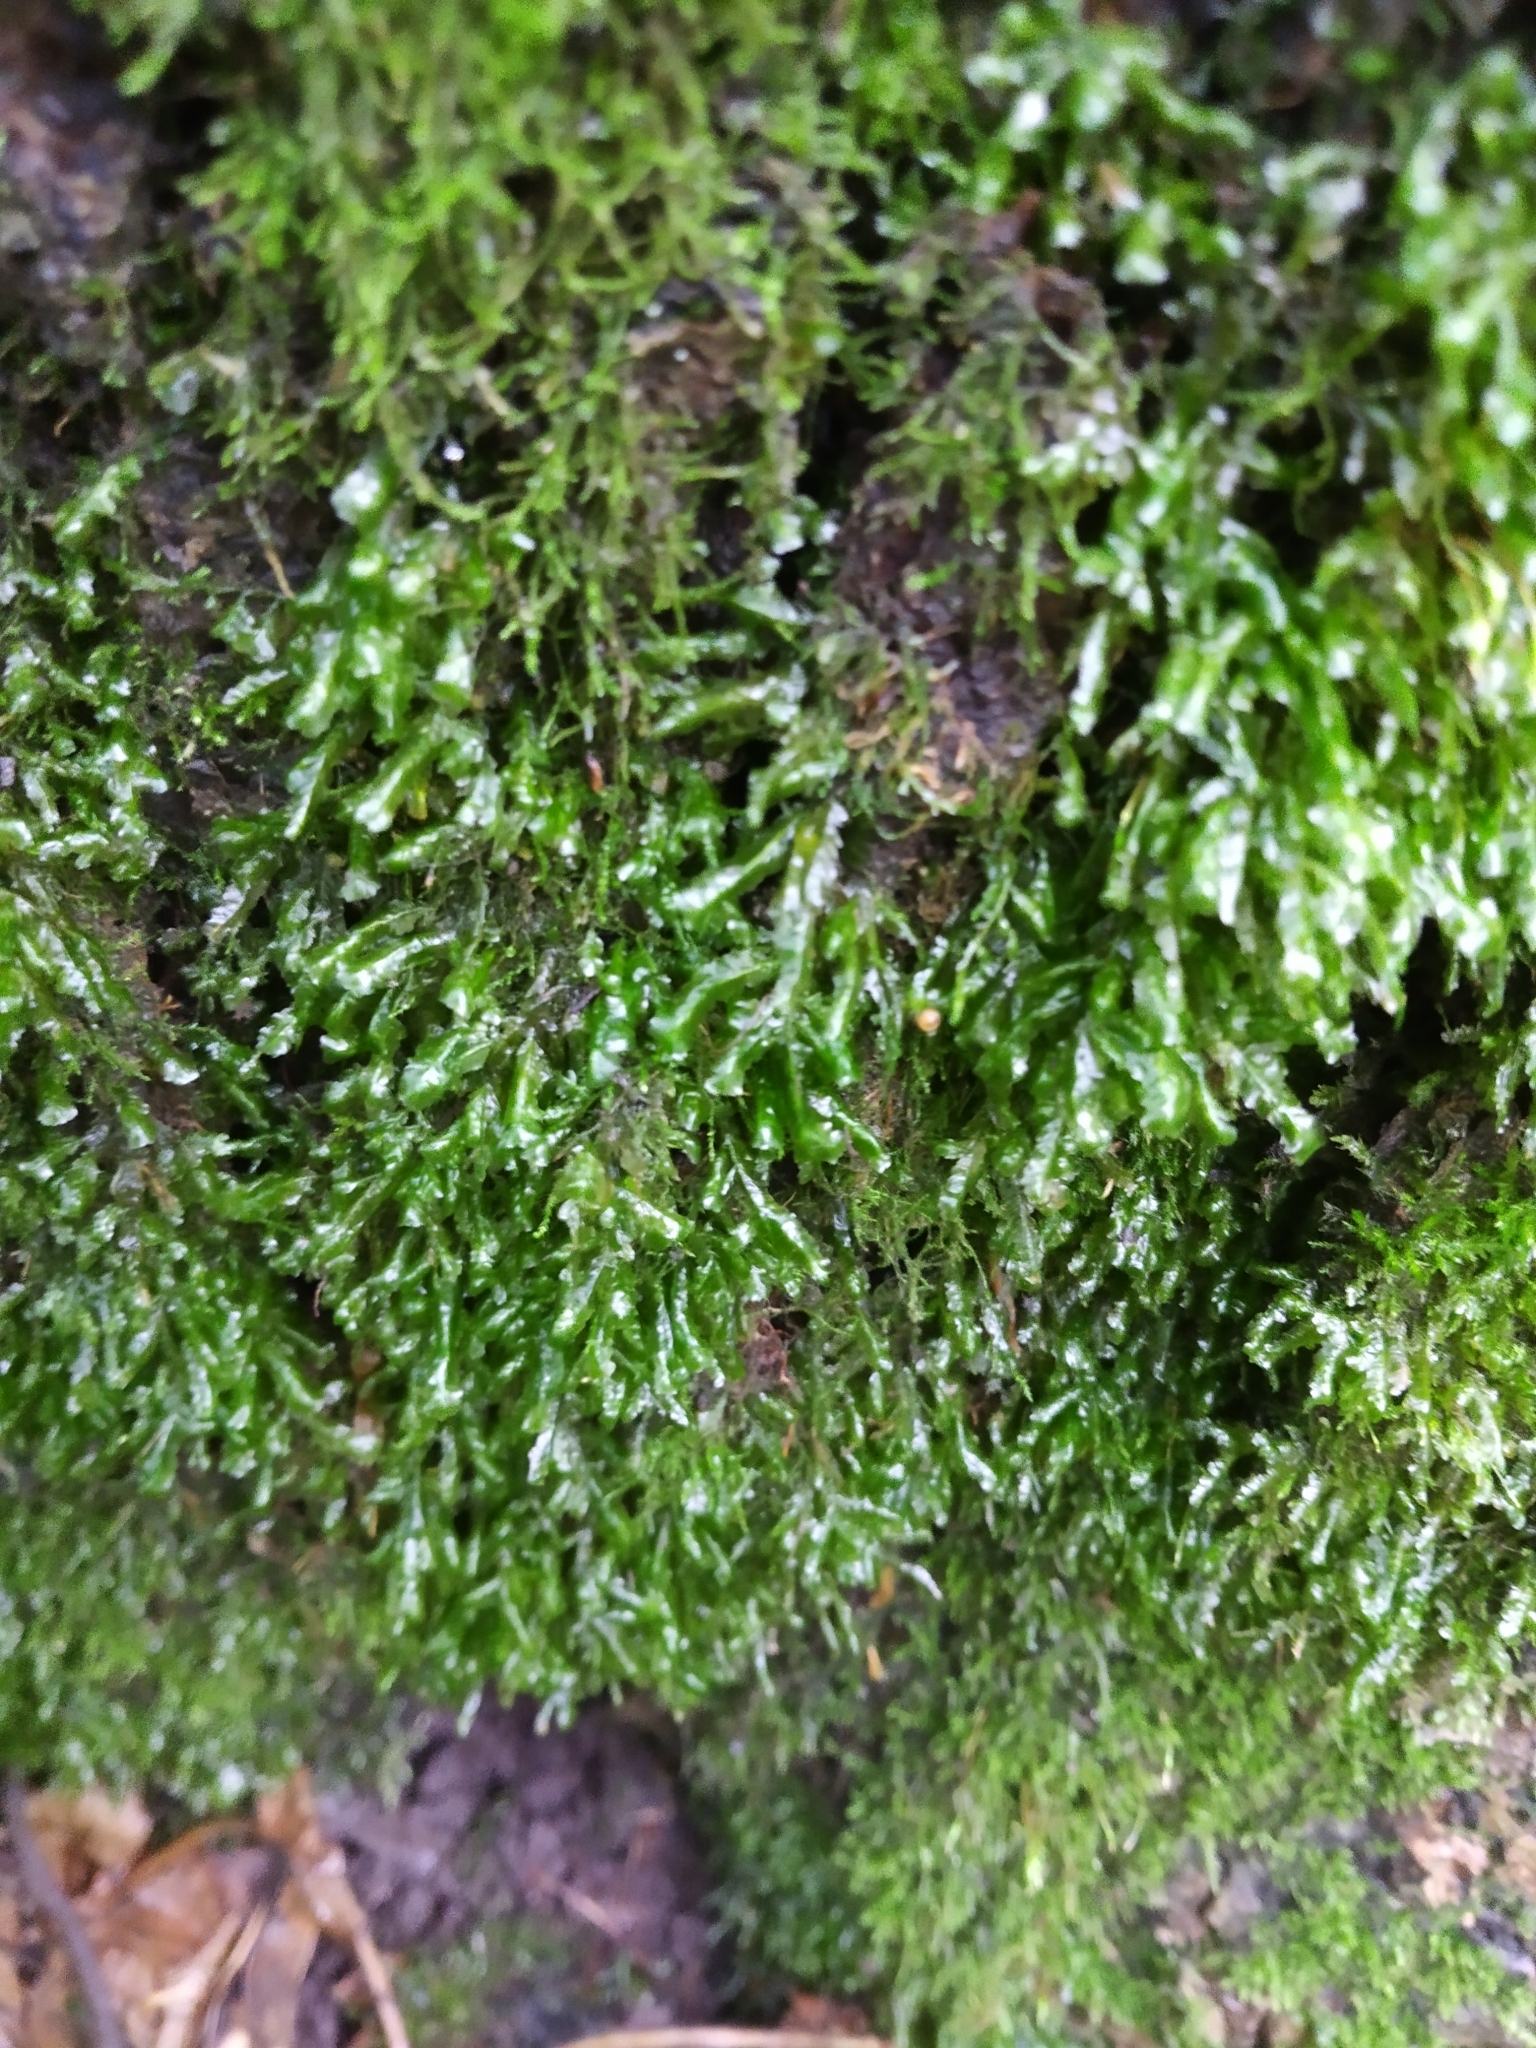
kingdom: Plantae
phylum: Bryophyta
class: Bryopsida
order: Hypnales
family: Neckeraceae
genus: Homalia
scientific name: Homalia trichomanoides
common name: Lime homalia moss
